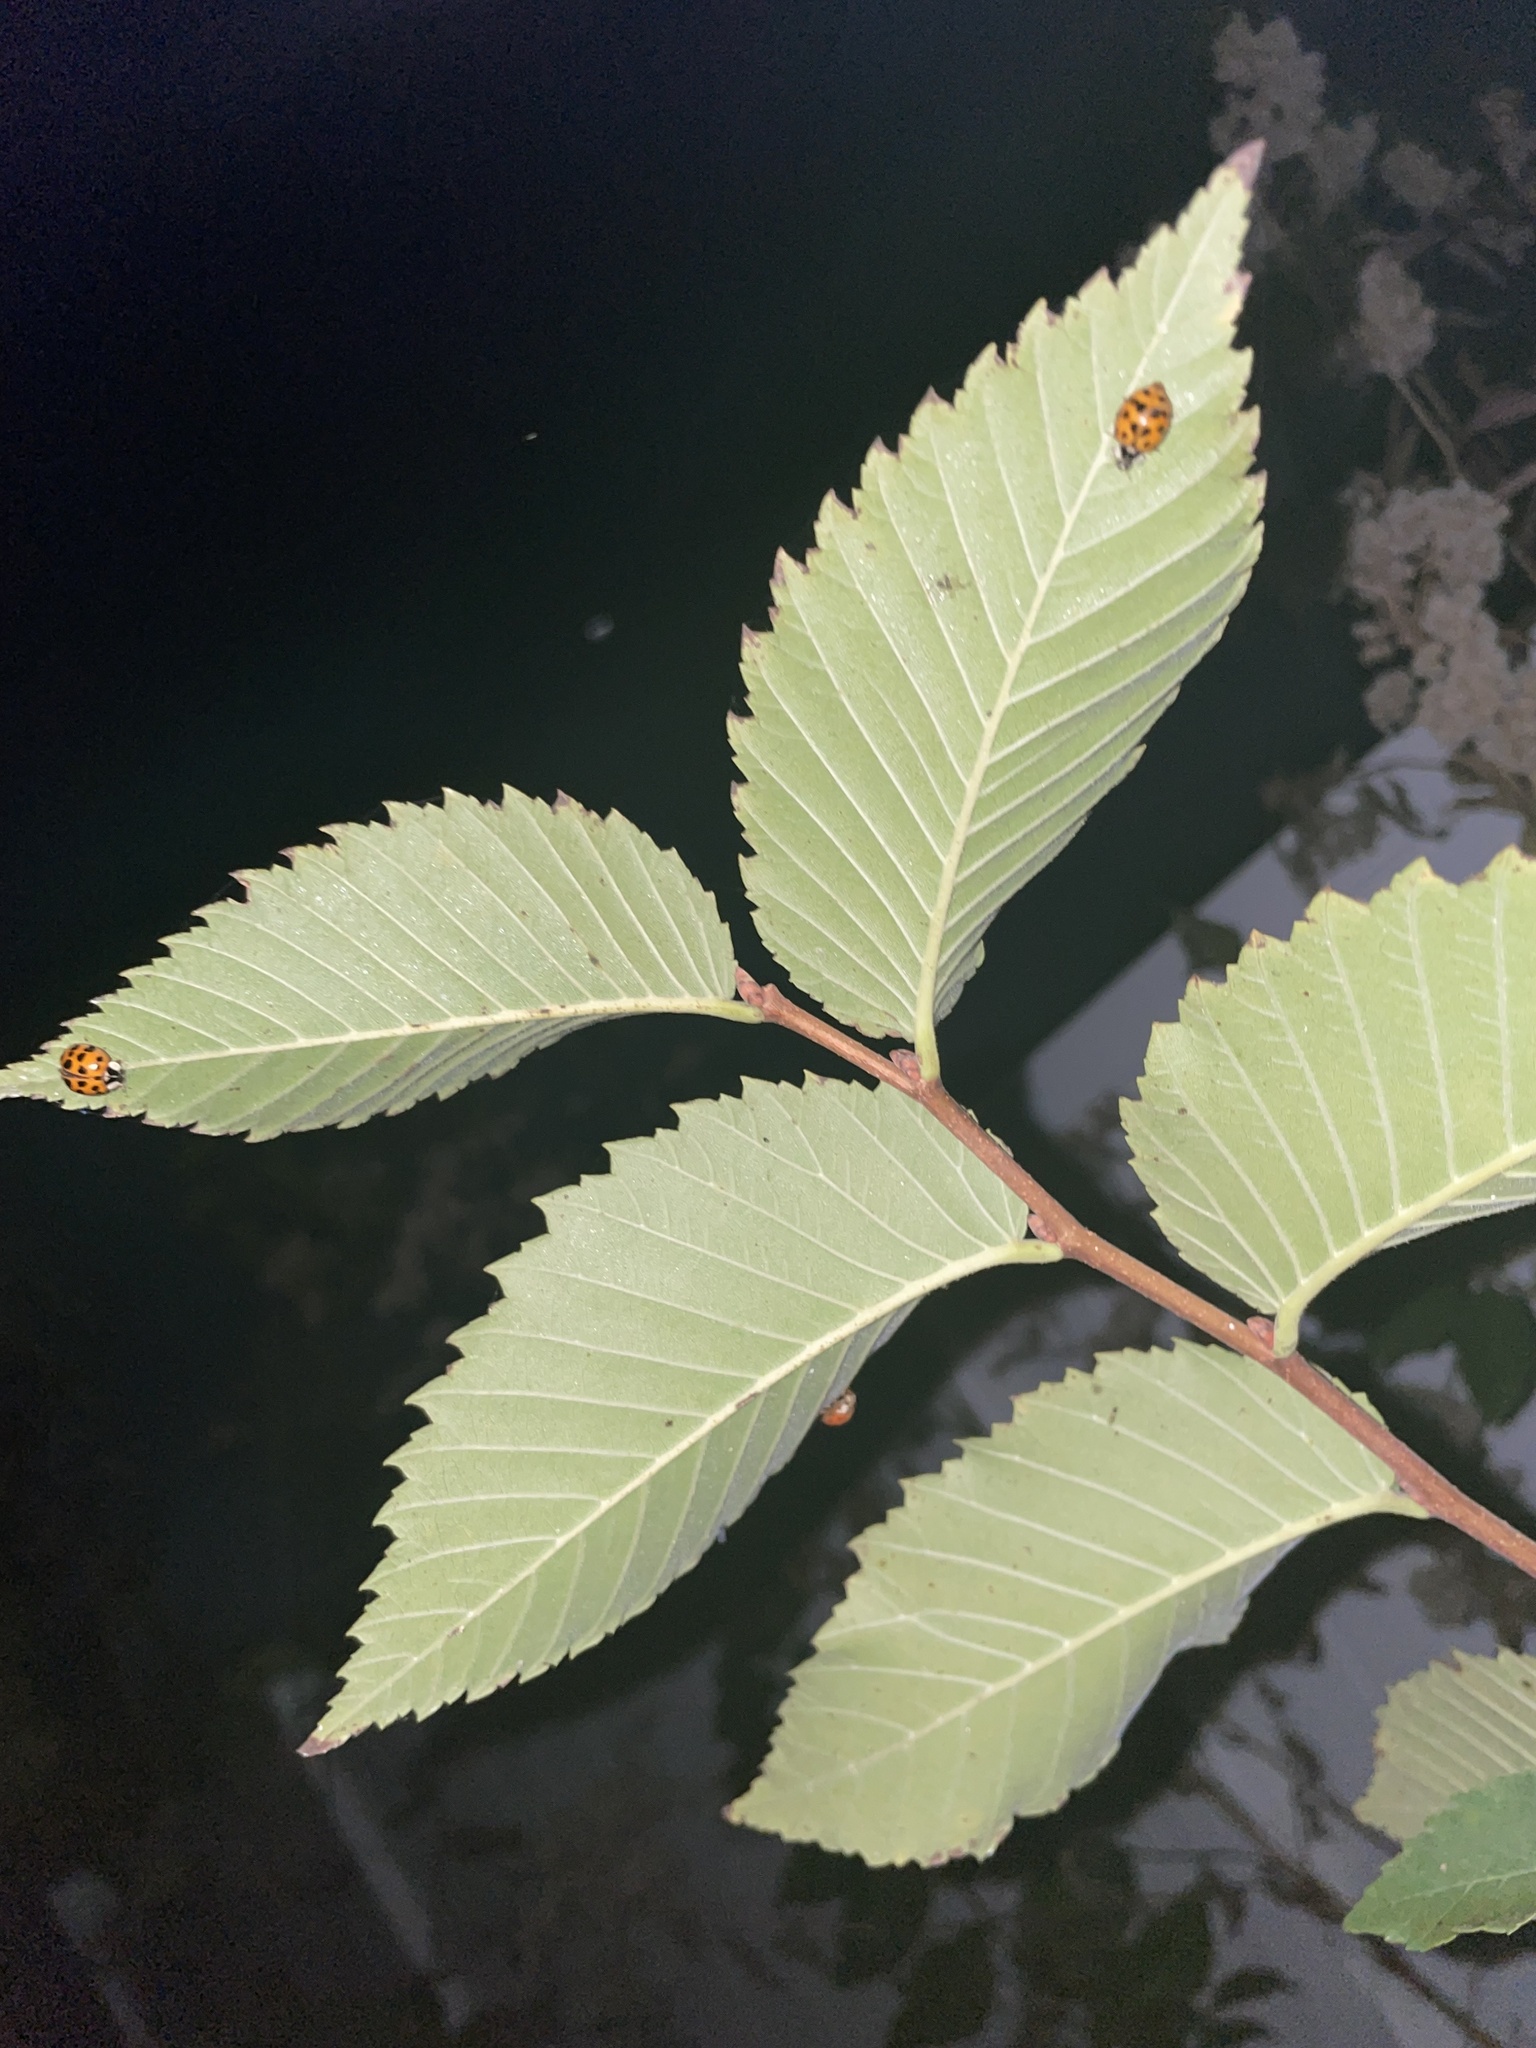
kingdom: Animalia
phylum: Arthropoda
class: Insecta
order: Coleoptera
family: Coccinellidae
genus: Harmonia
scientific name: Harmonia axyridis
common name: Harlequin ladybird
